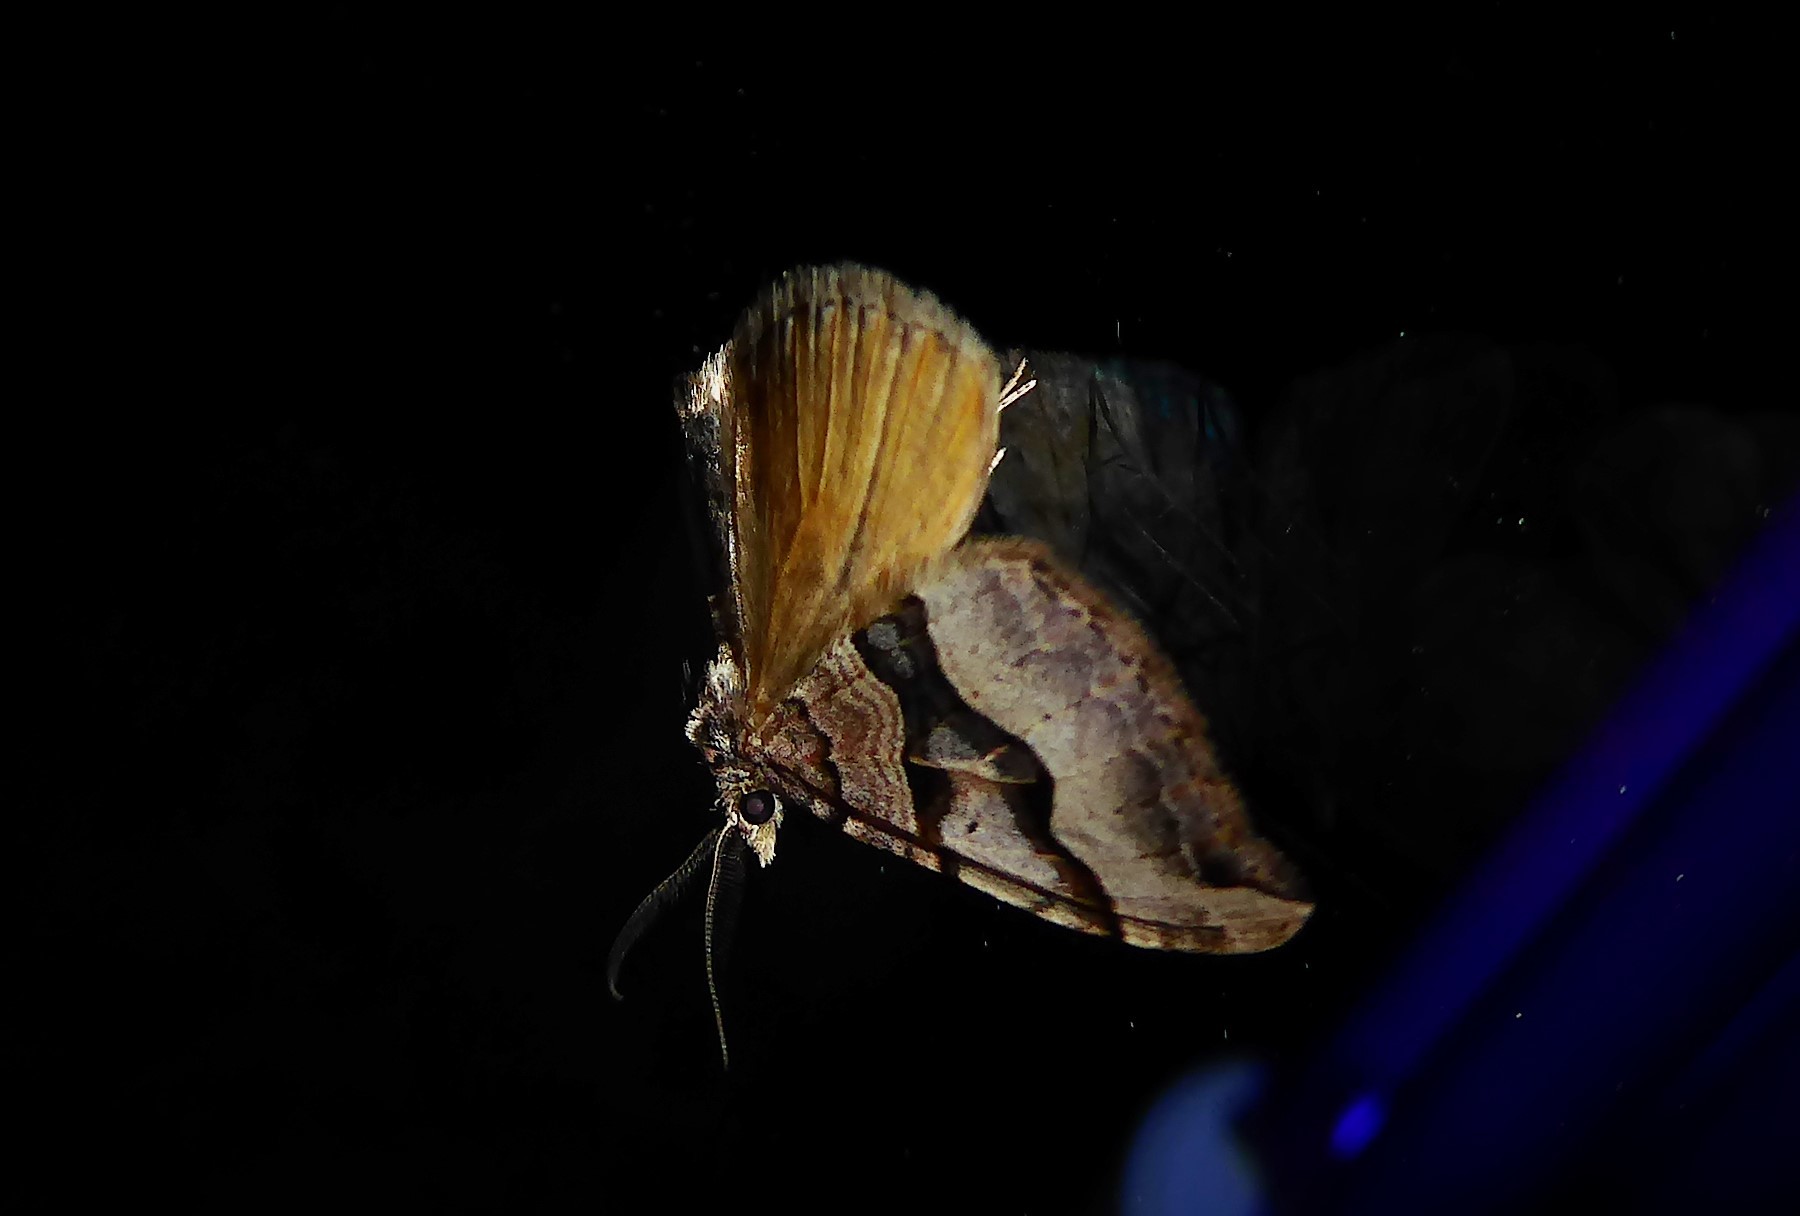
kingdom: Animalia
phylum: Arthropoda
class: Insecta
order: Lepidoptera
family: Geometridae
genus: Xanthorhoe
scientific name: Xanthorhoe semifissata
